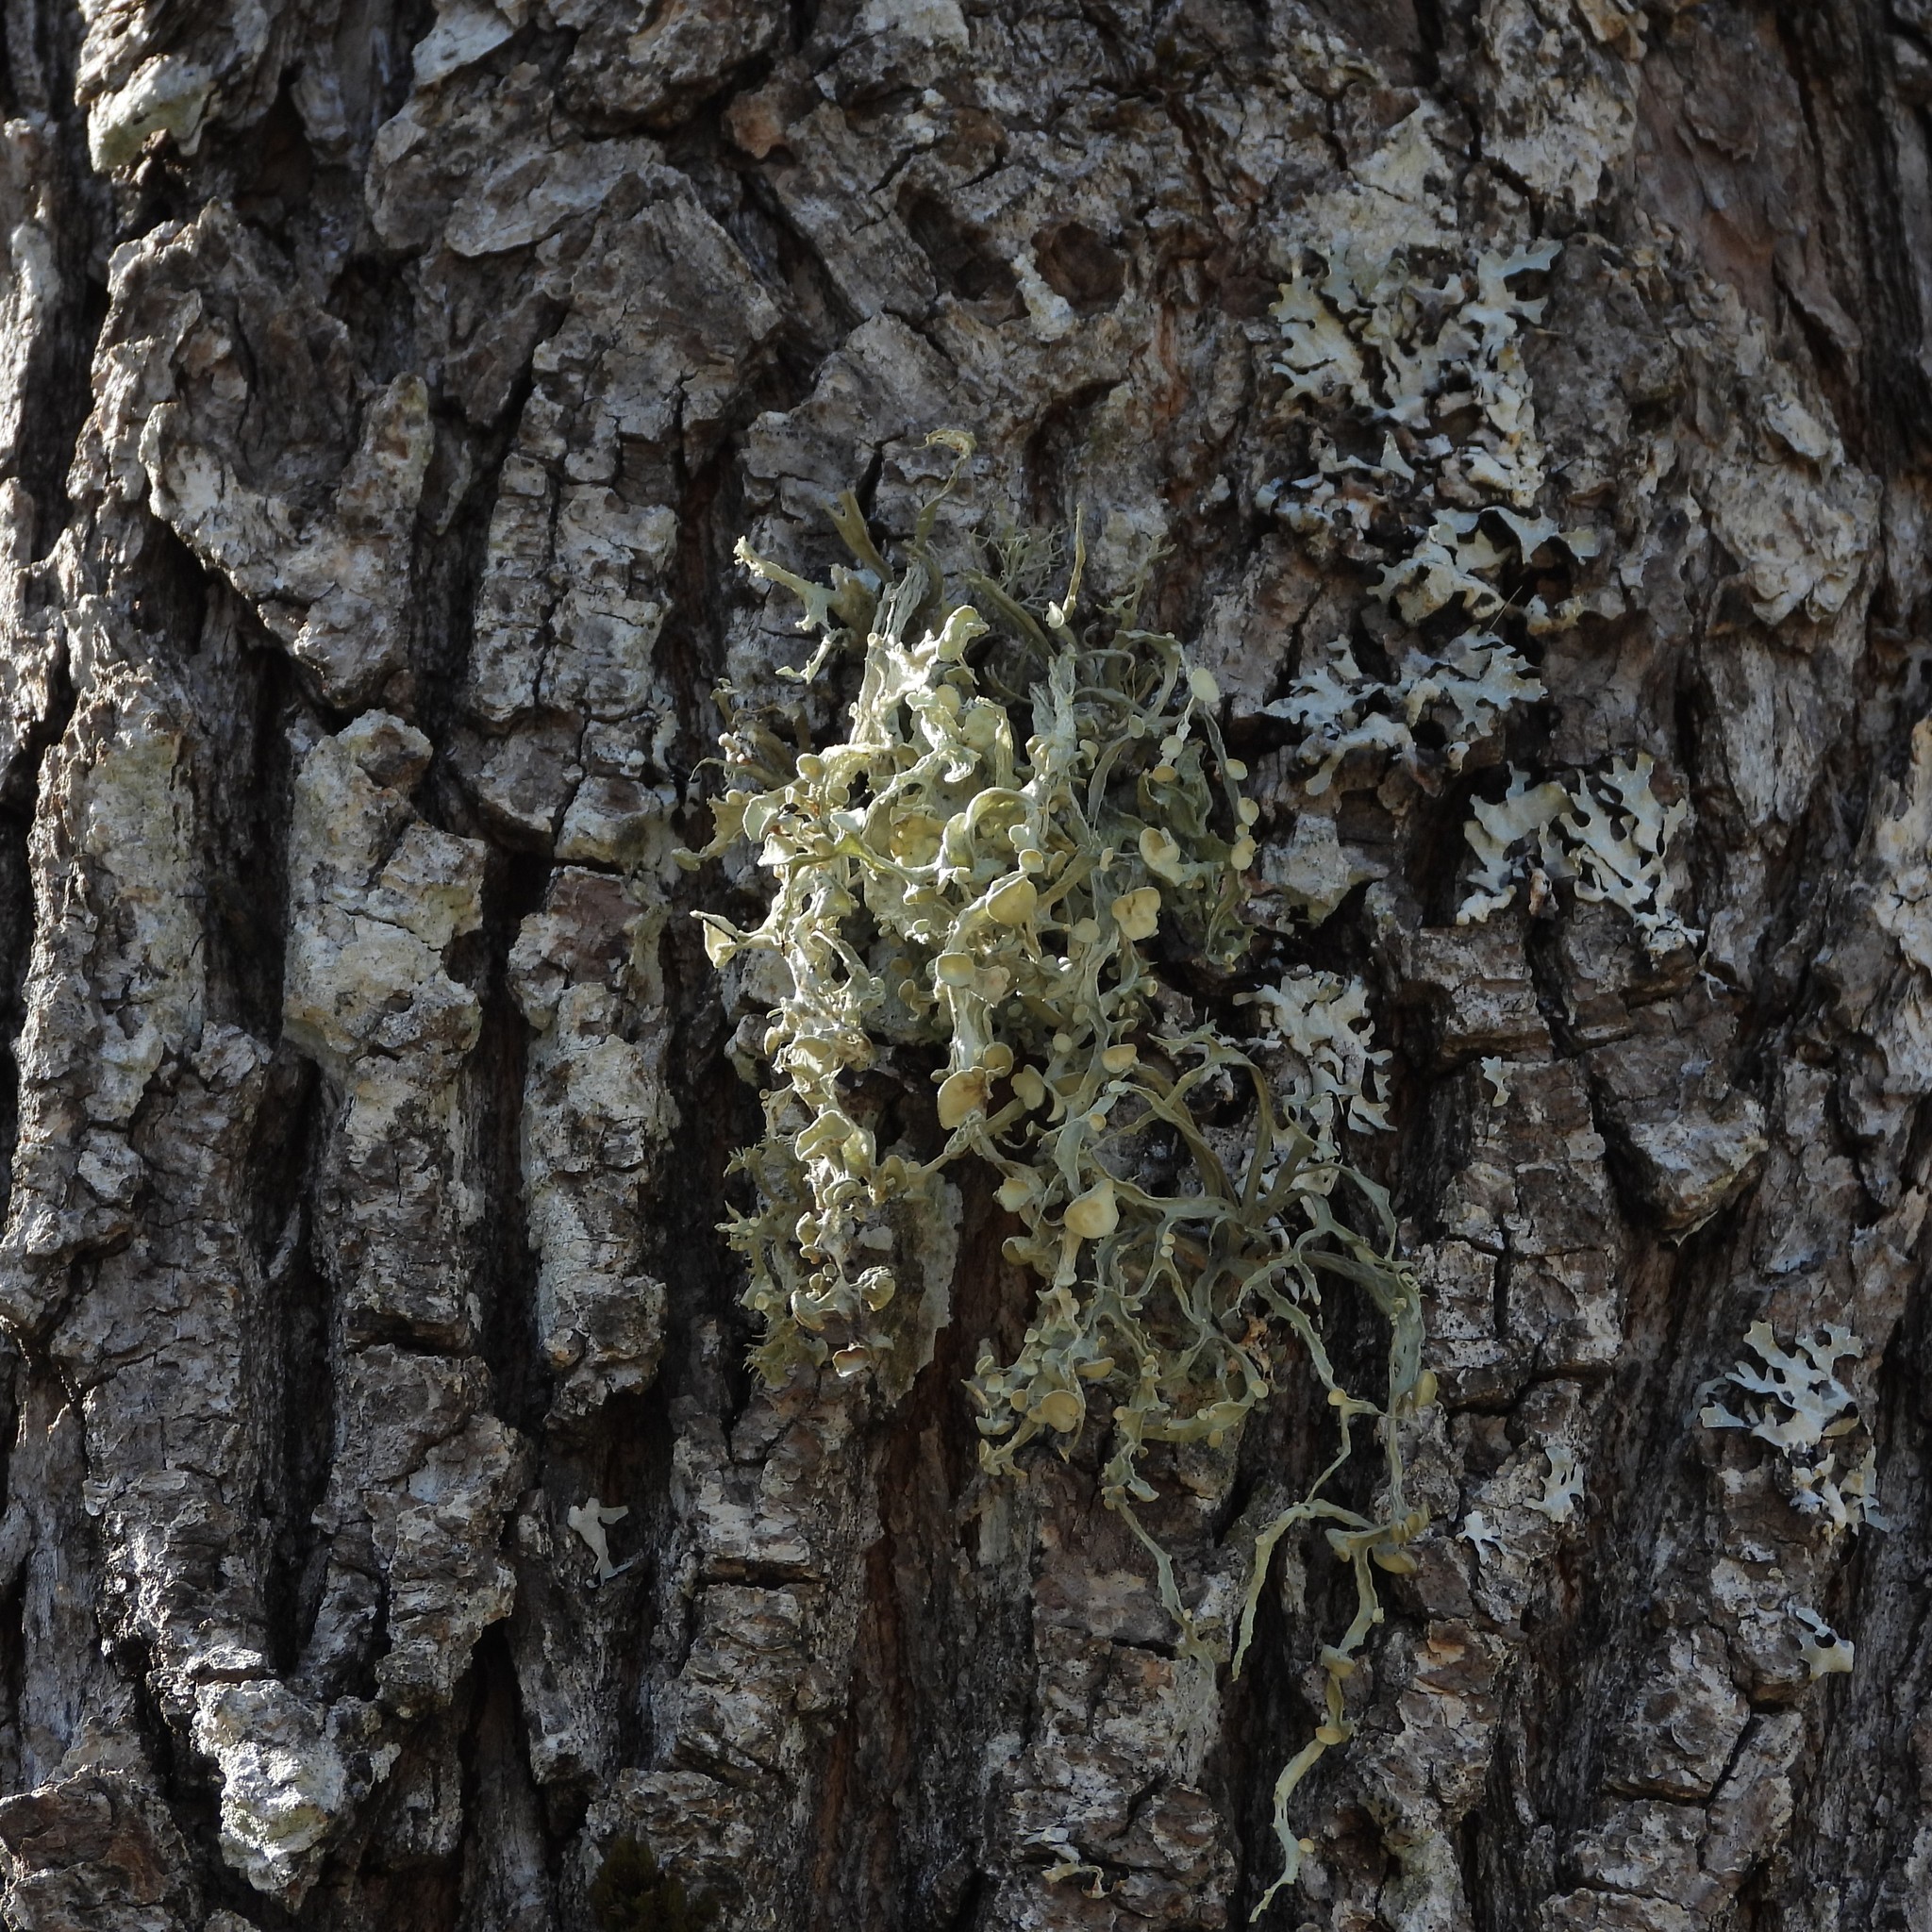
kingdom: Fungi
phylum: Ascomycota
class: Lecanoromycetes
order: Lecanorales
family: Ramalinaceae
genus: Ramalina
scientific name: Ramalina fraxinea
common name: Cartilage lichen
